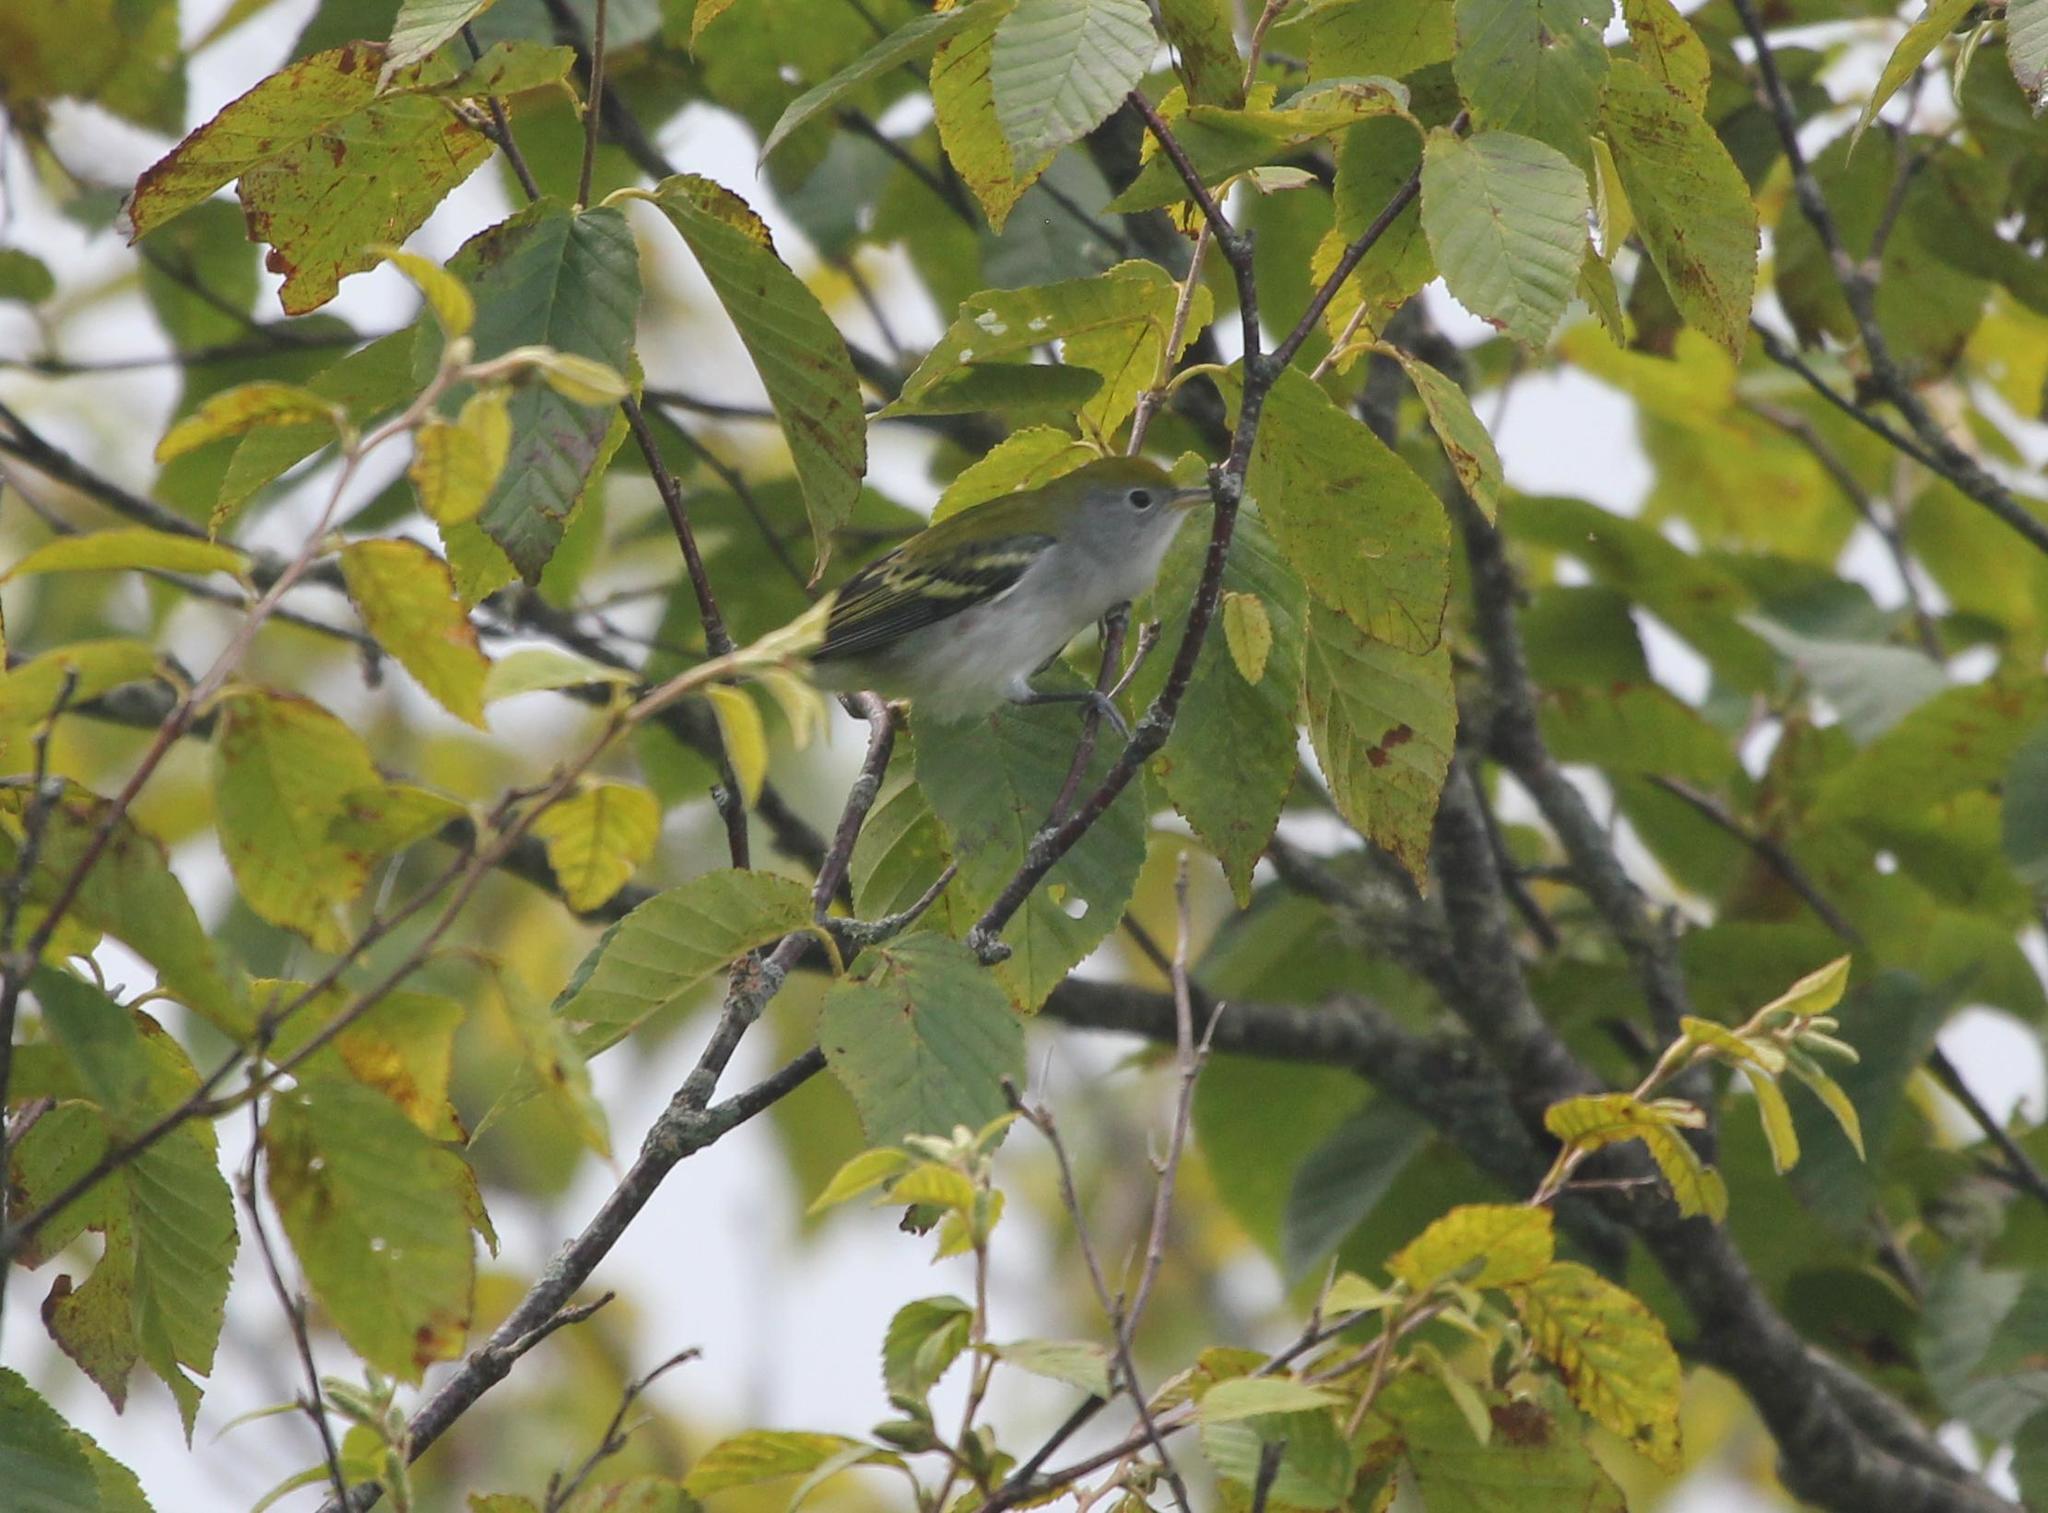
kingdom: Animalia
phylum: Chordata
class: Aves
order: Passeriformes
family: Parulidae
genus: Setophaga
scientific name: Setophaga pensylvanica
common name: Chestnut-sided warbler
